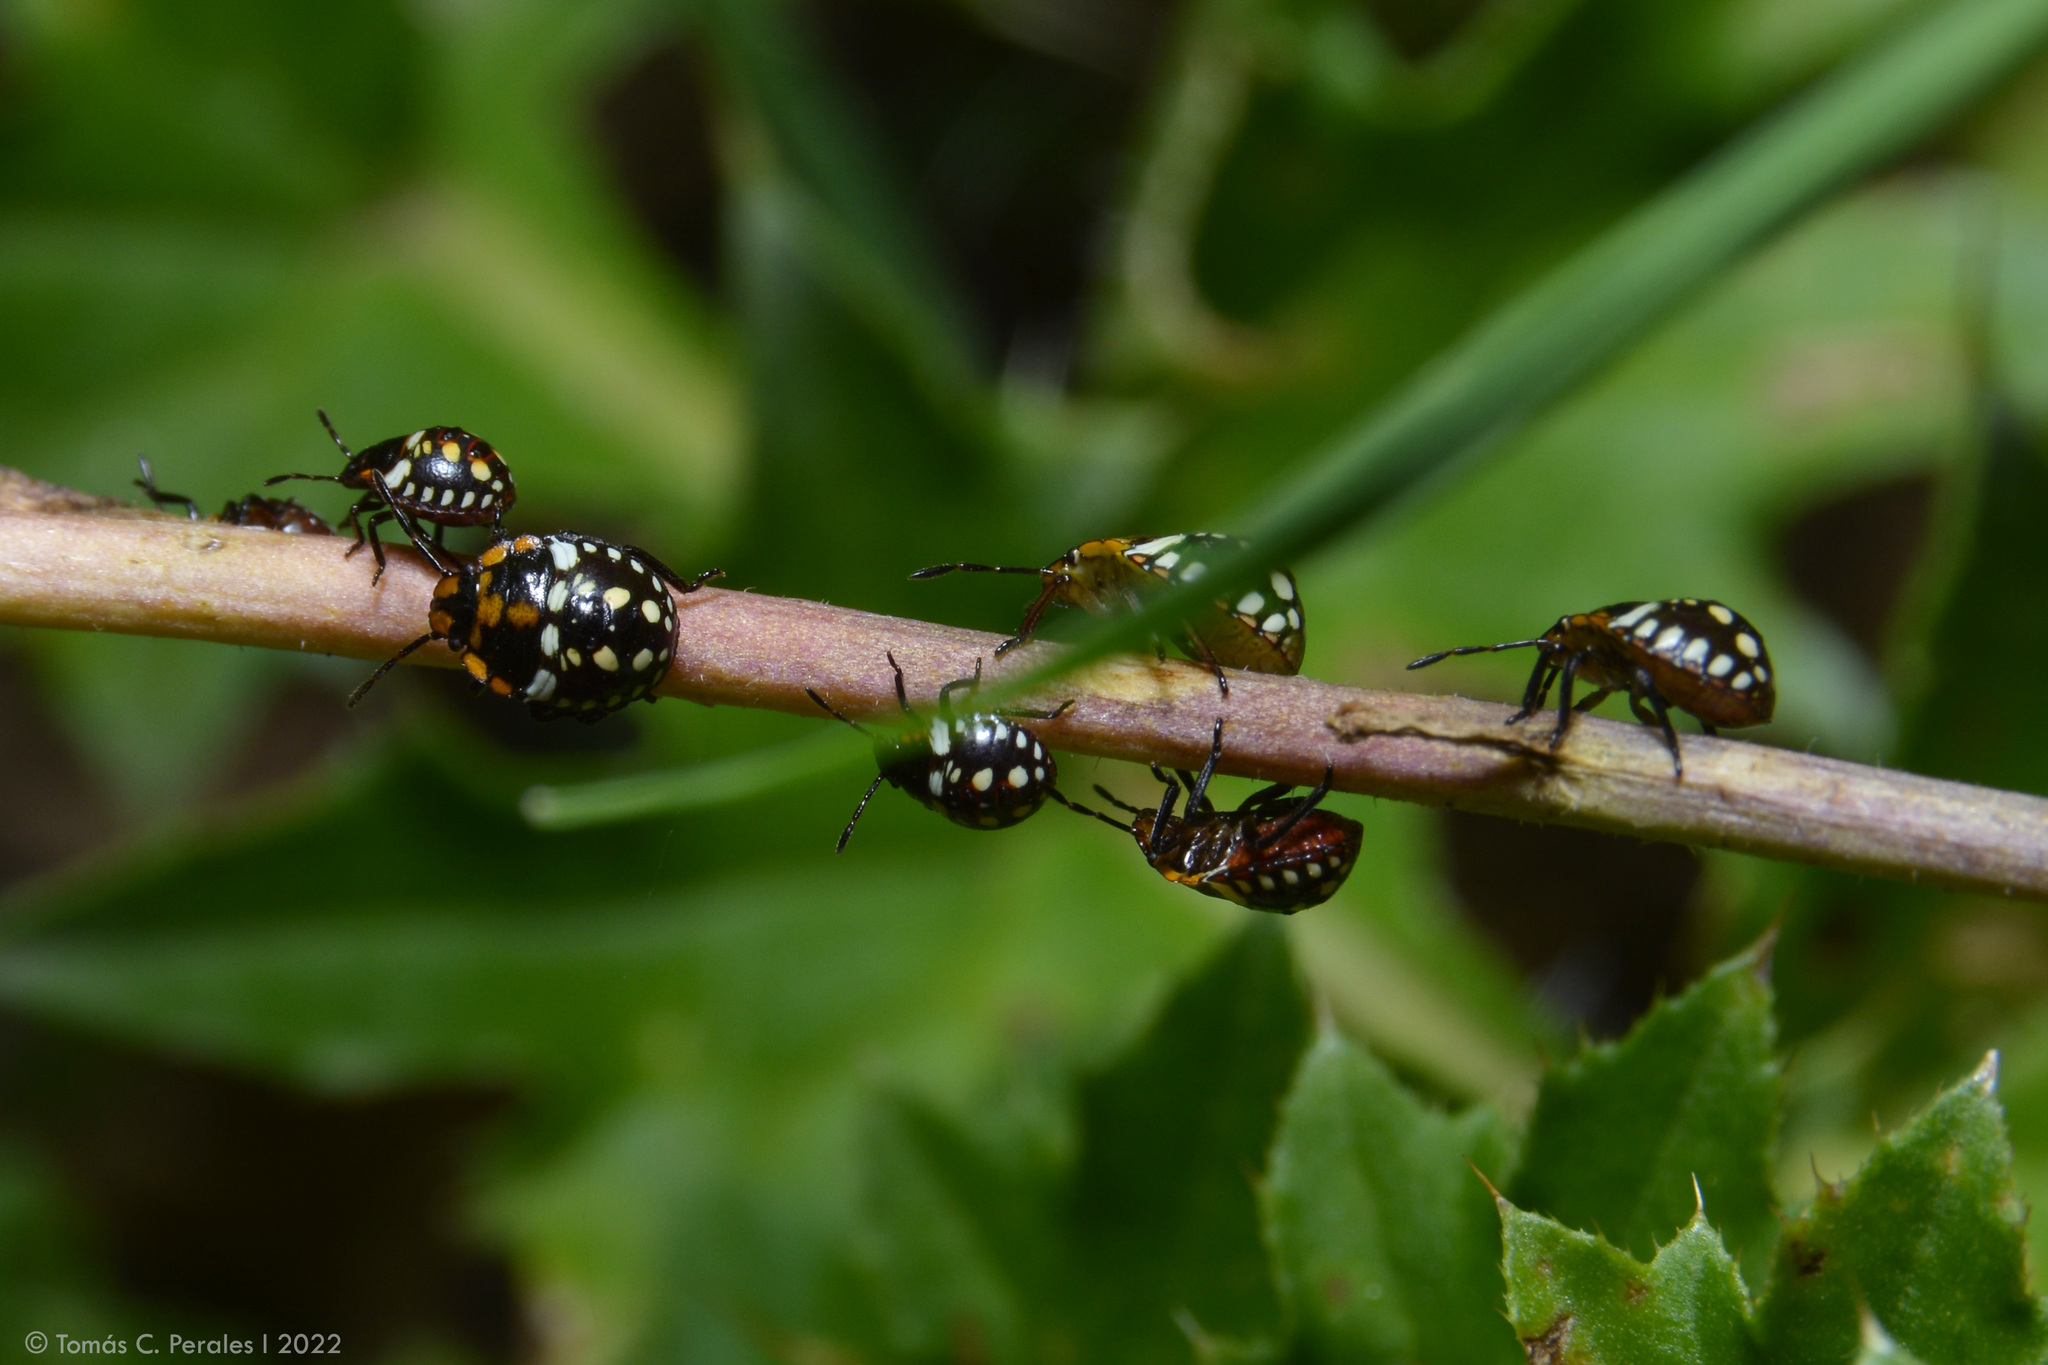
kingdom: Animalia
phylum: Arthropoda
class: Insecta
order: Hemiptera
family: Pentatomidae
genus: Nezara
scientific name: Nezara viridula
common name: Southern green stink bug
